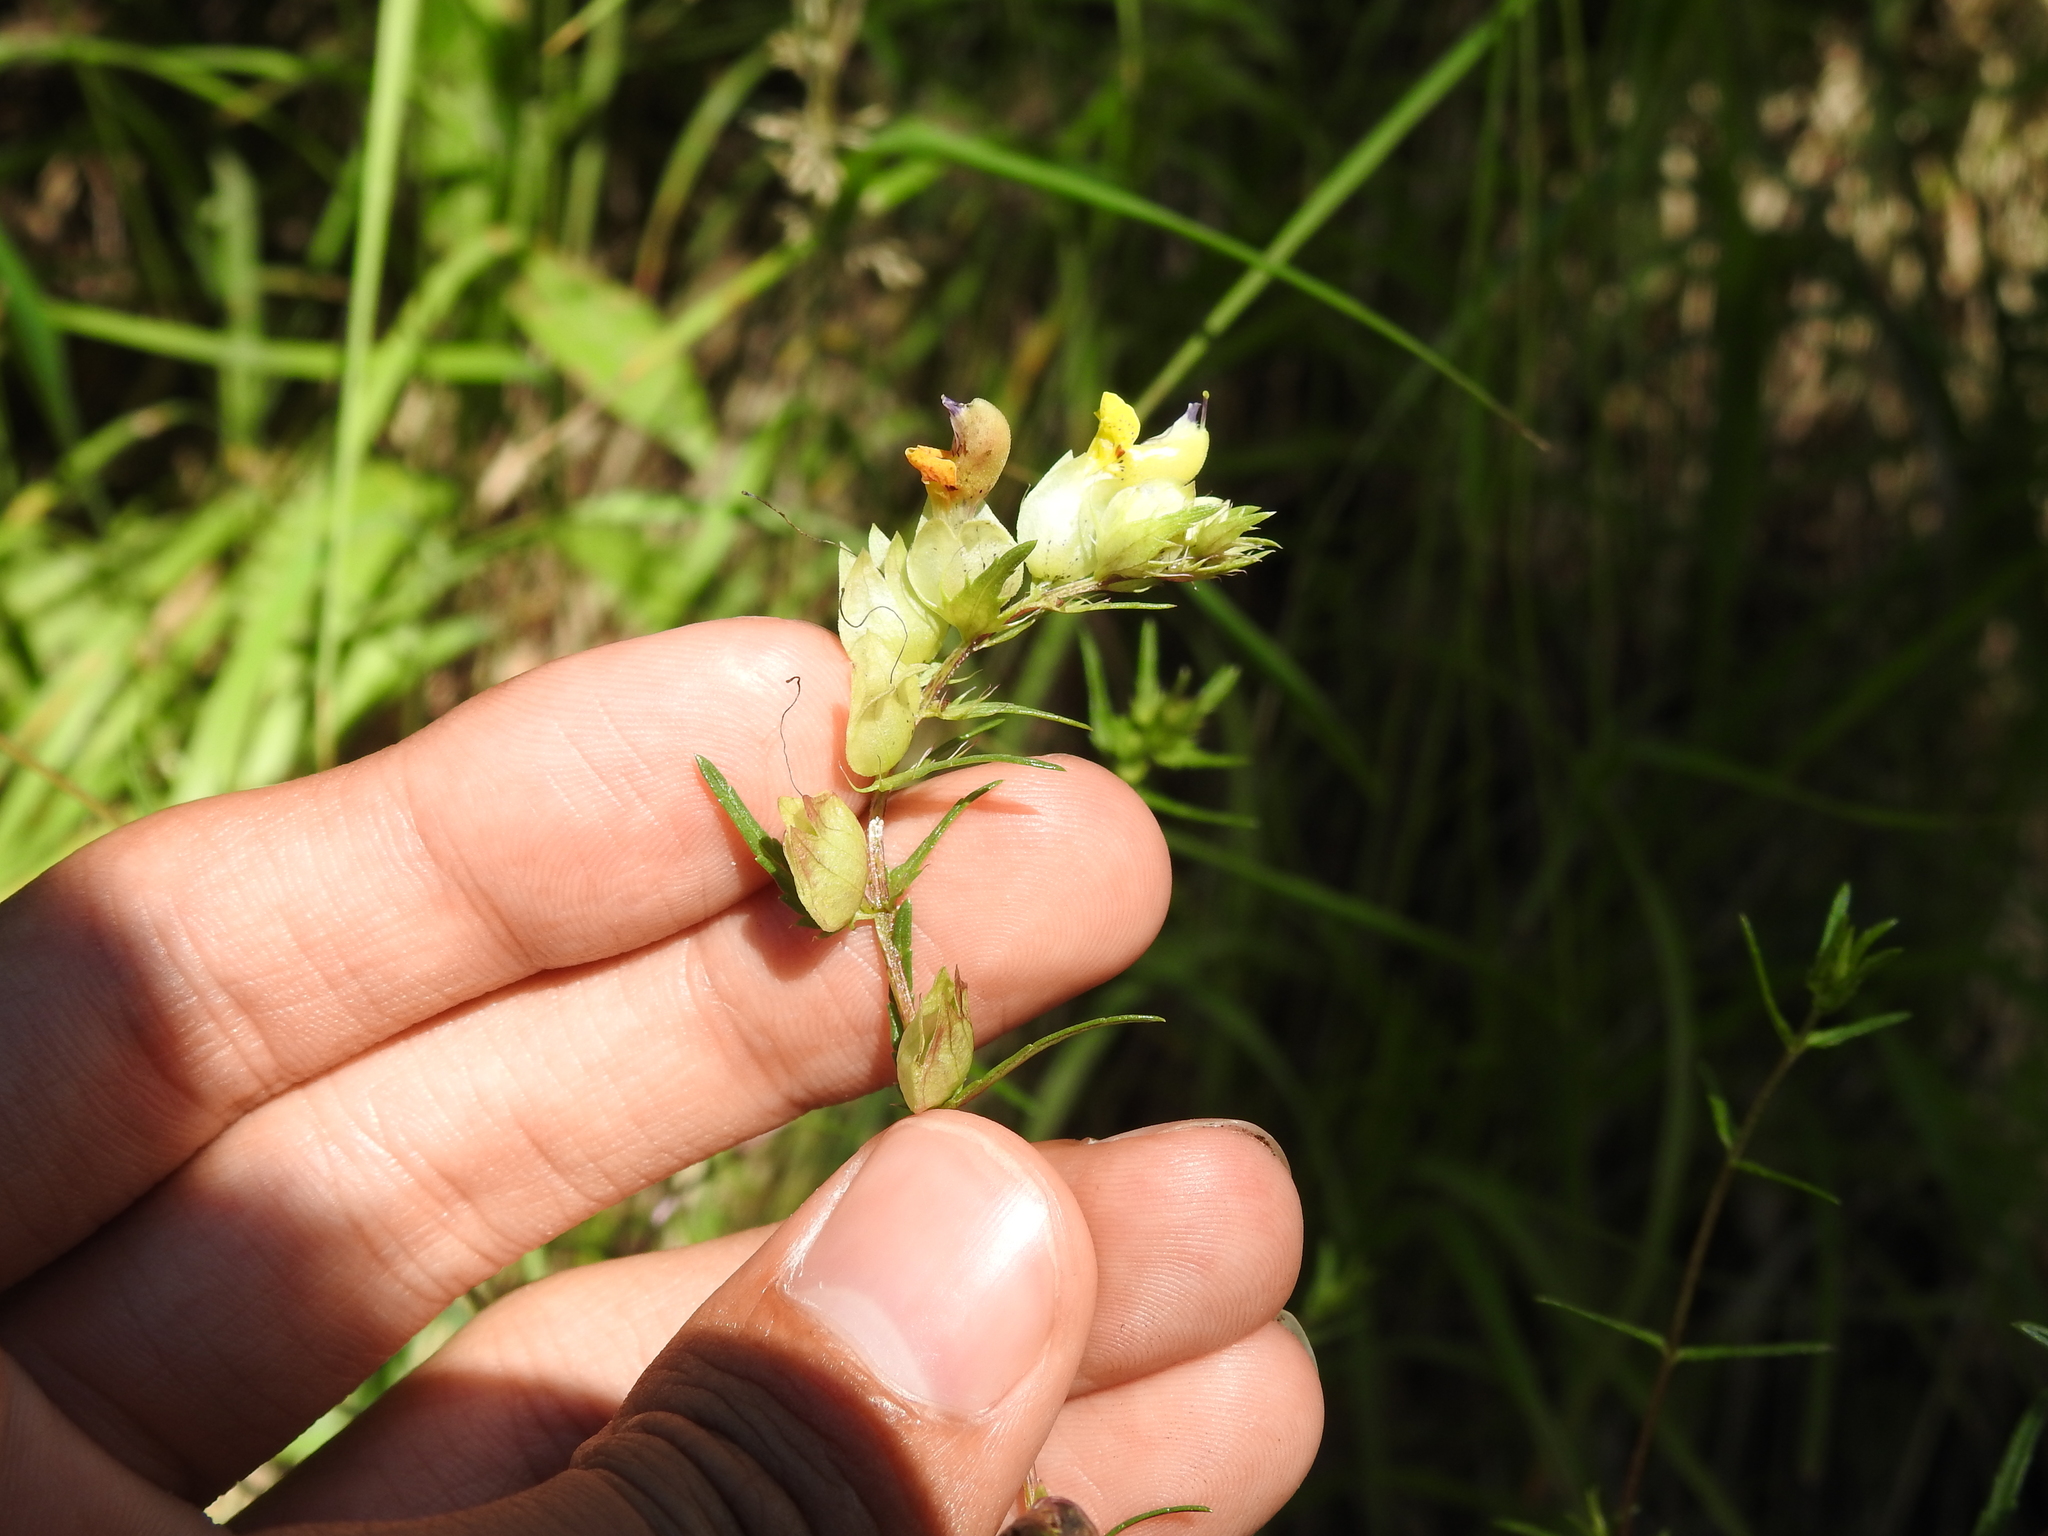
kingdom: Plantae
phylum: Tracheophyta
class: Magnoliopsida
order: Lamiales
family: Orobanchaceae
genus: Rhinanthus
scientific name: Rhinanthus glacialis
